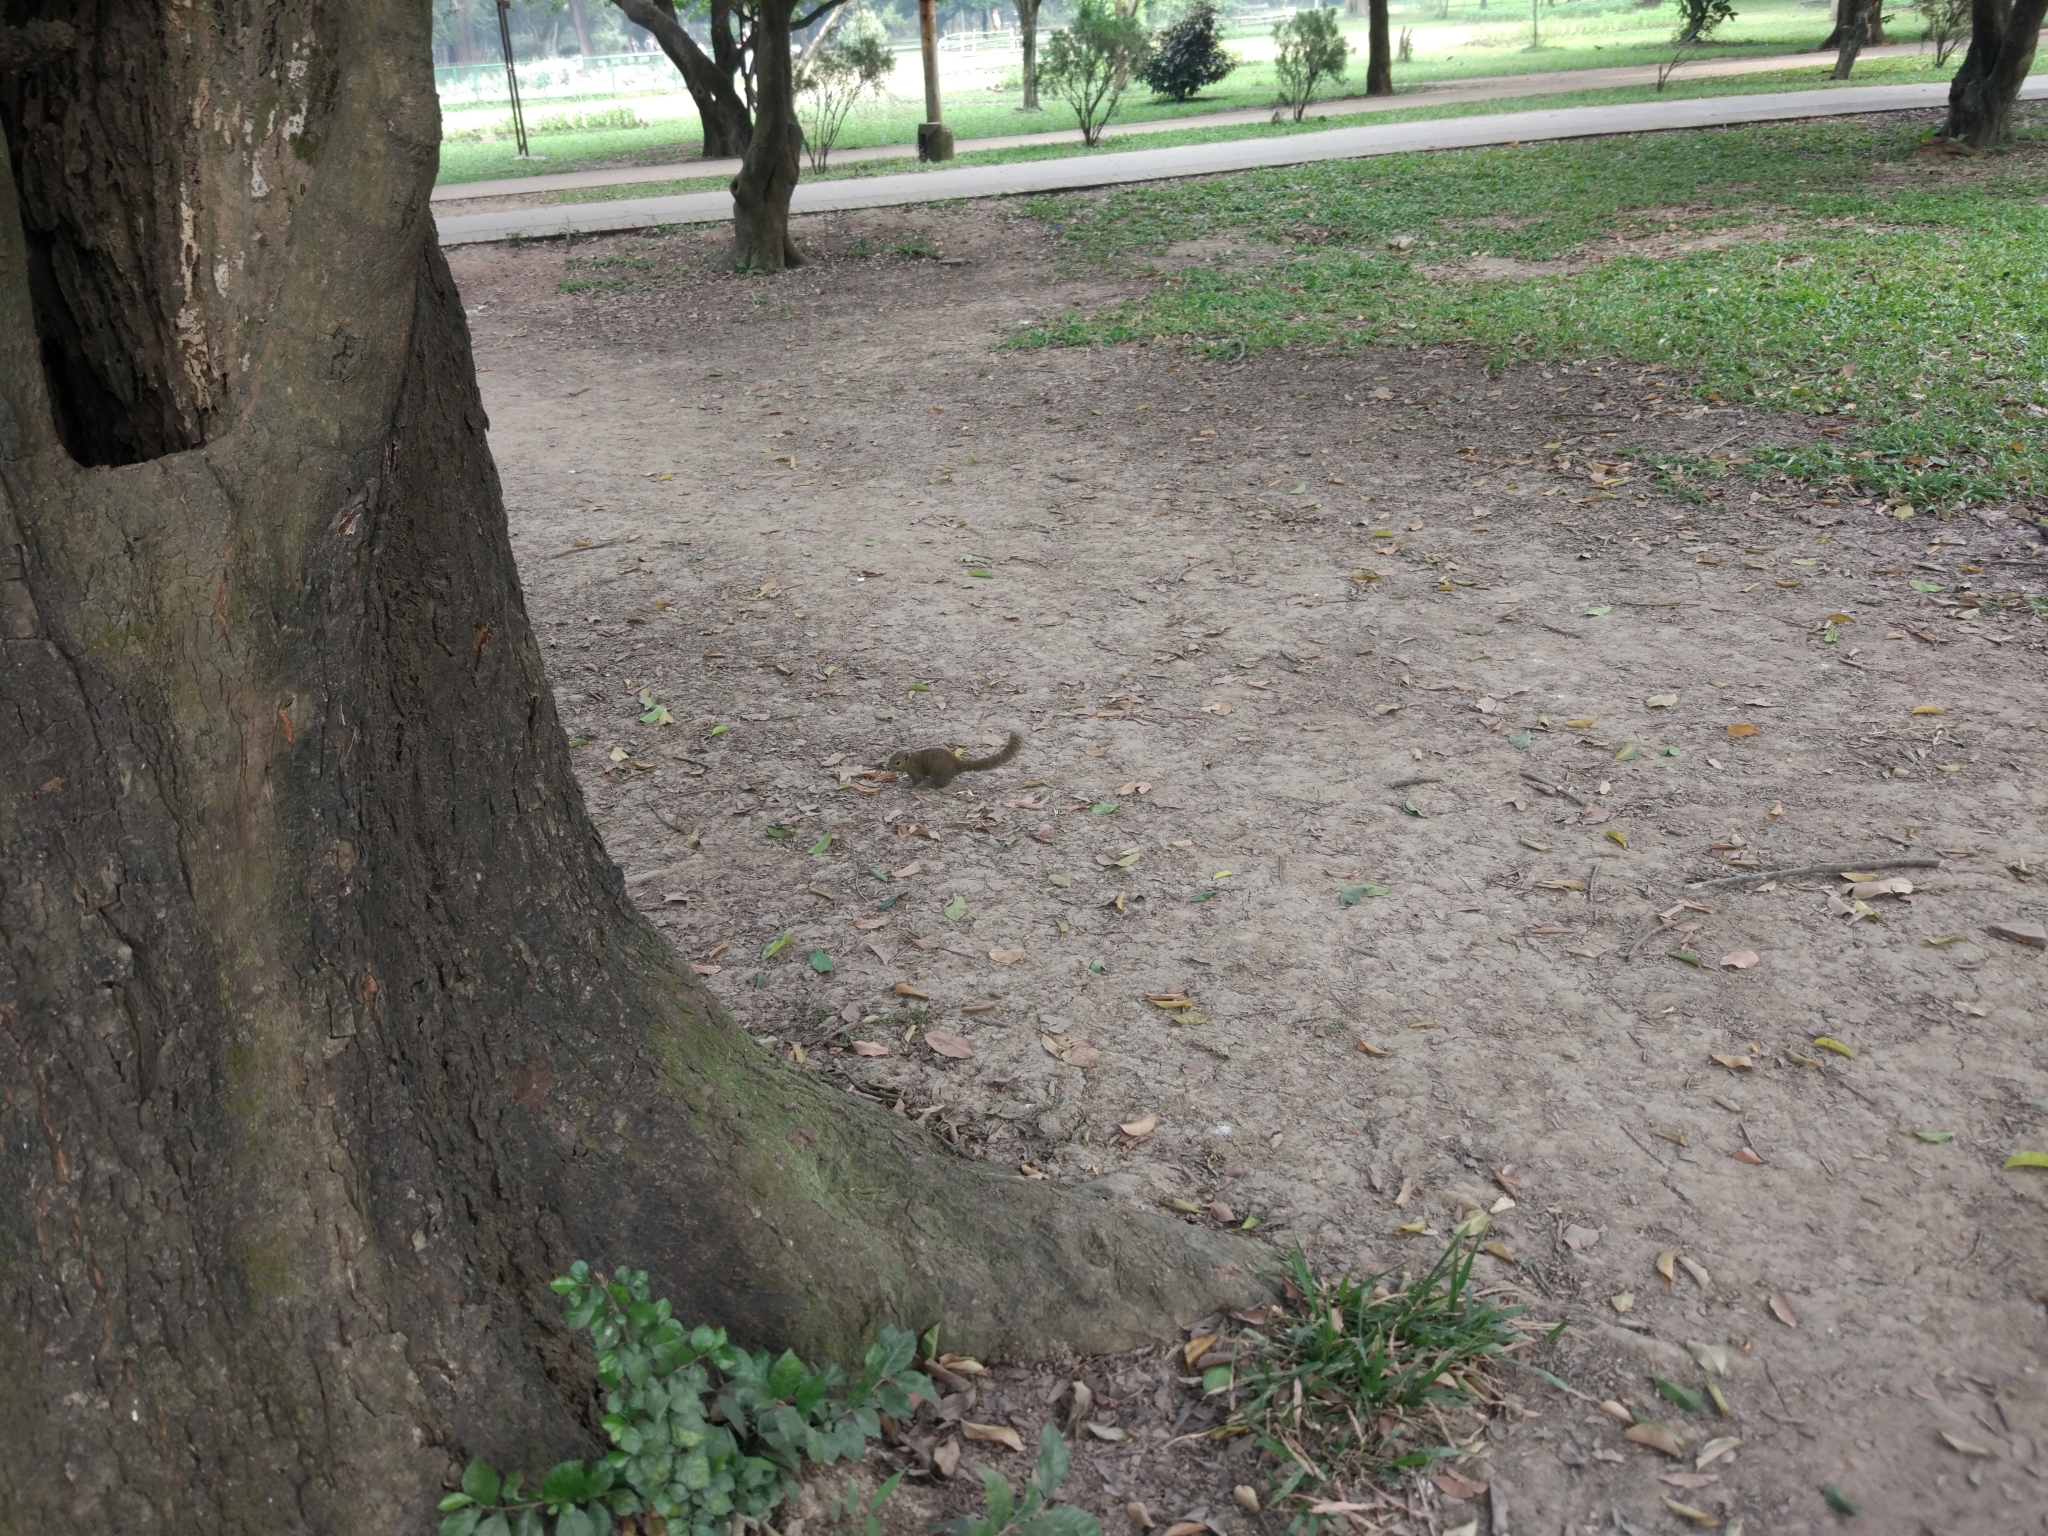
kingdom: Animalia
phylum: Chordata
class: Mammalia
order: Rodentia
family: Sciuridae
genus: Callosciurus
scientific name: Callosciurus pygerythrus
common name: Irrawaddy squirrel
